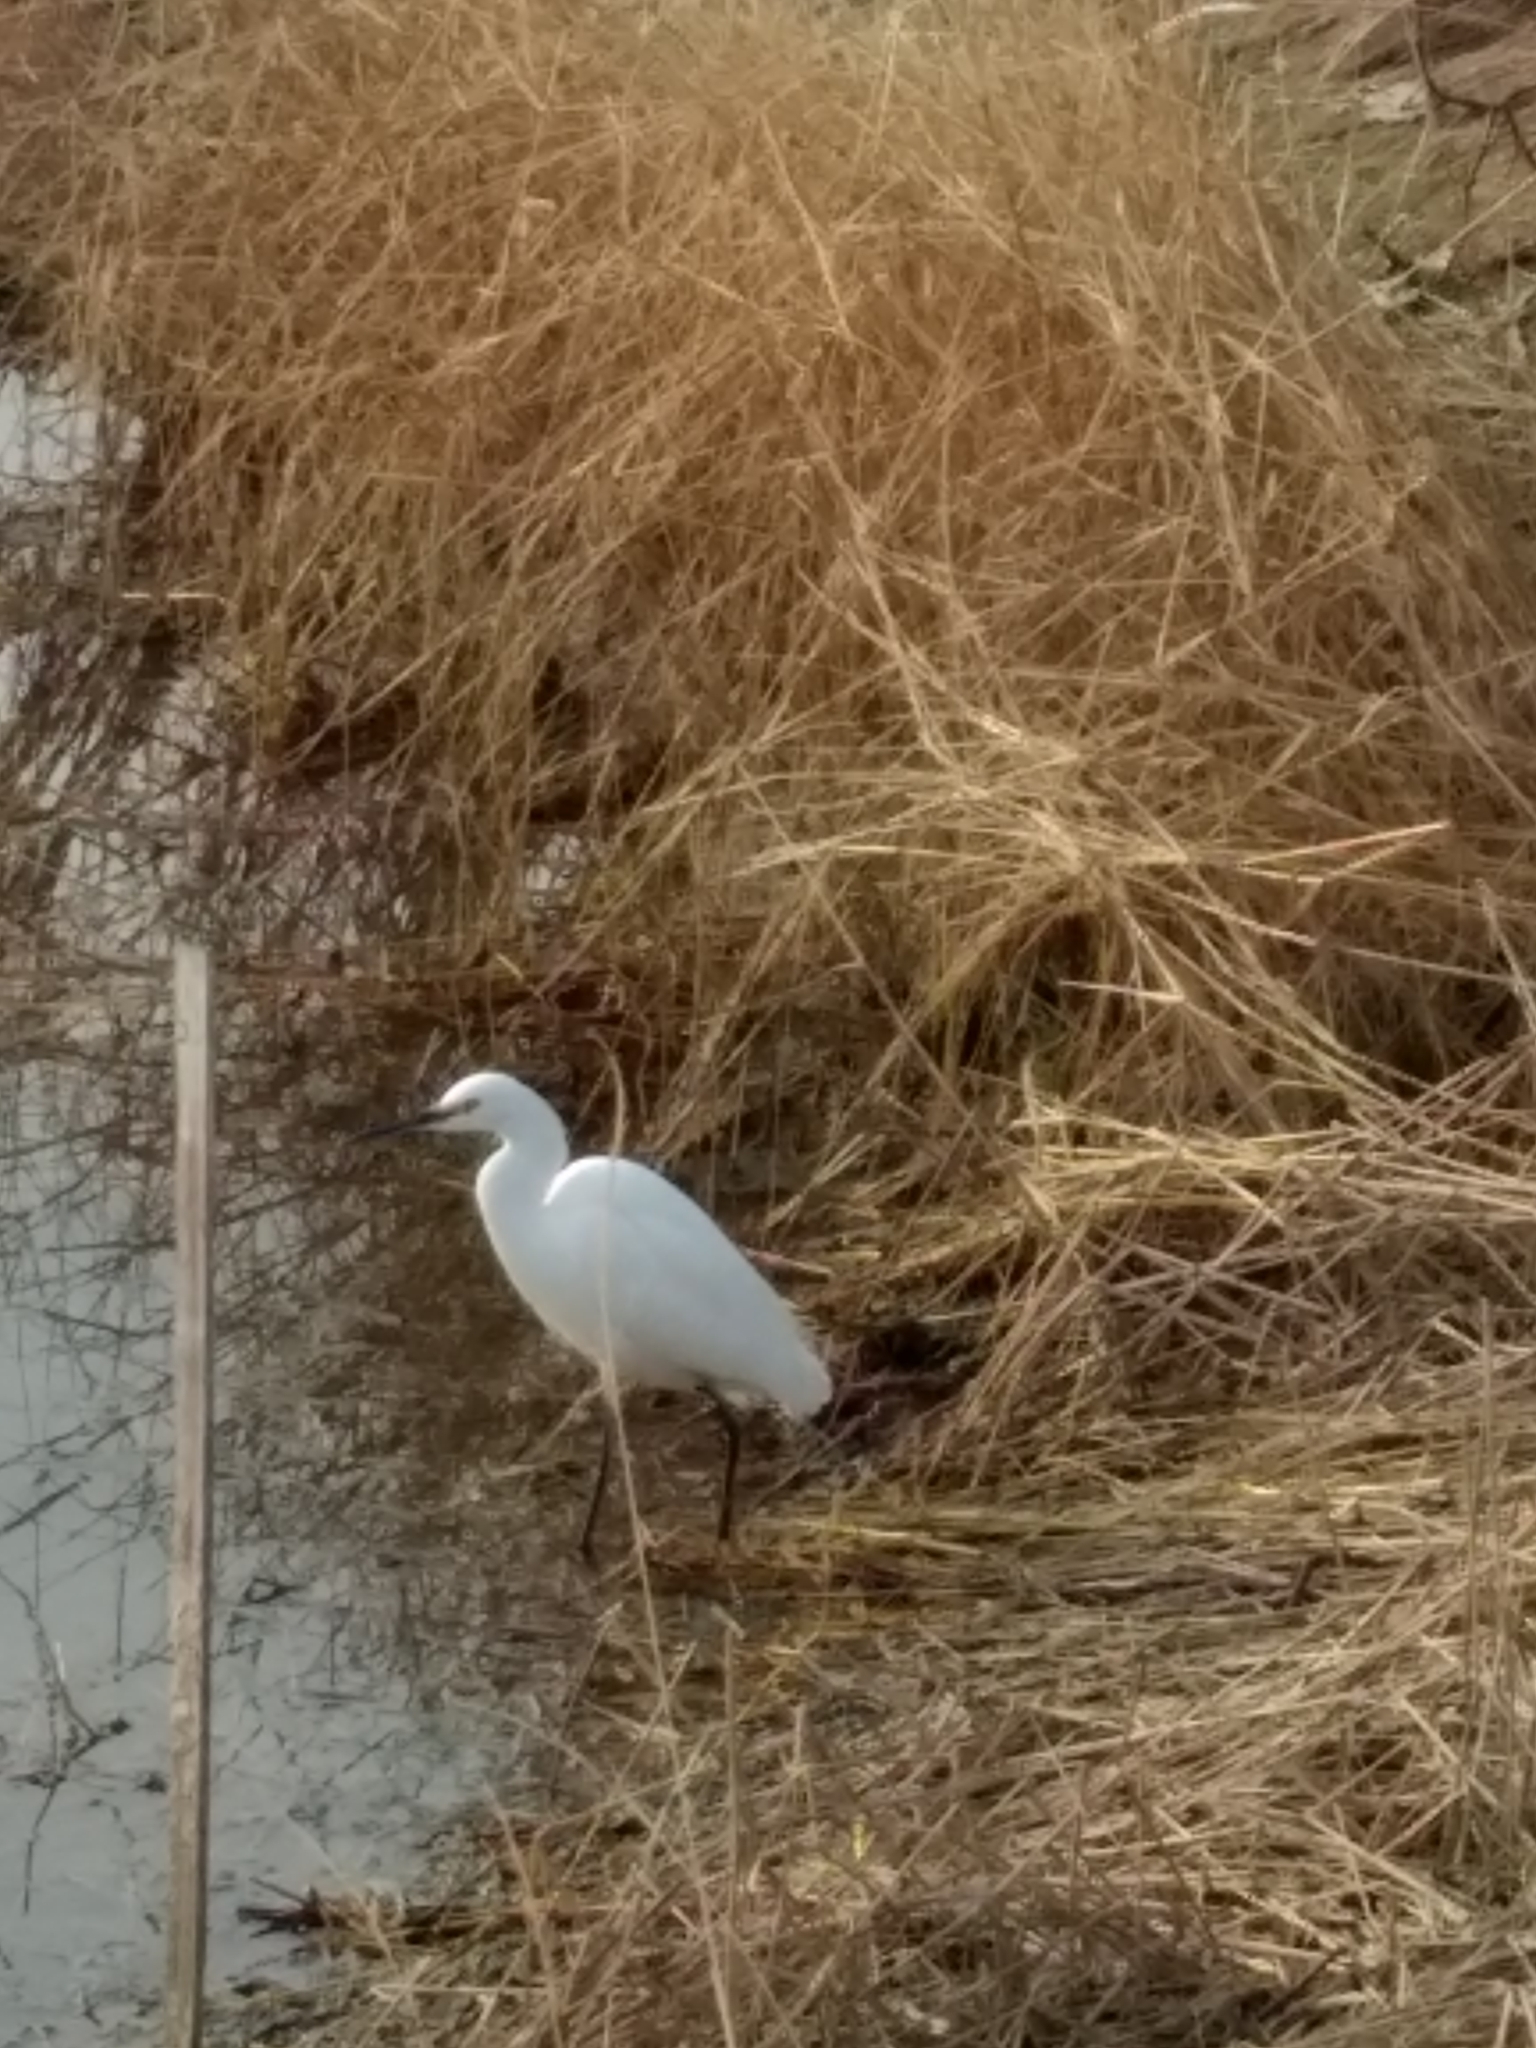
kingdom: Animalia
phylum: Chordata
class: Aves
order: Pelecaniformes
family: Ardeidae
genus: Egretta
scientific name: Egretta thula
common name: Snowy egret
